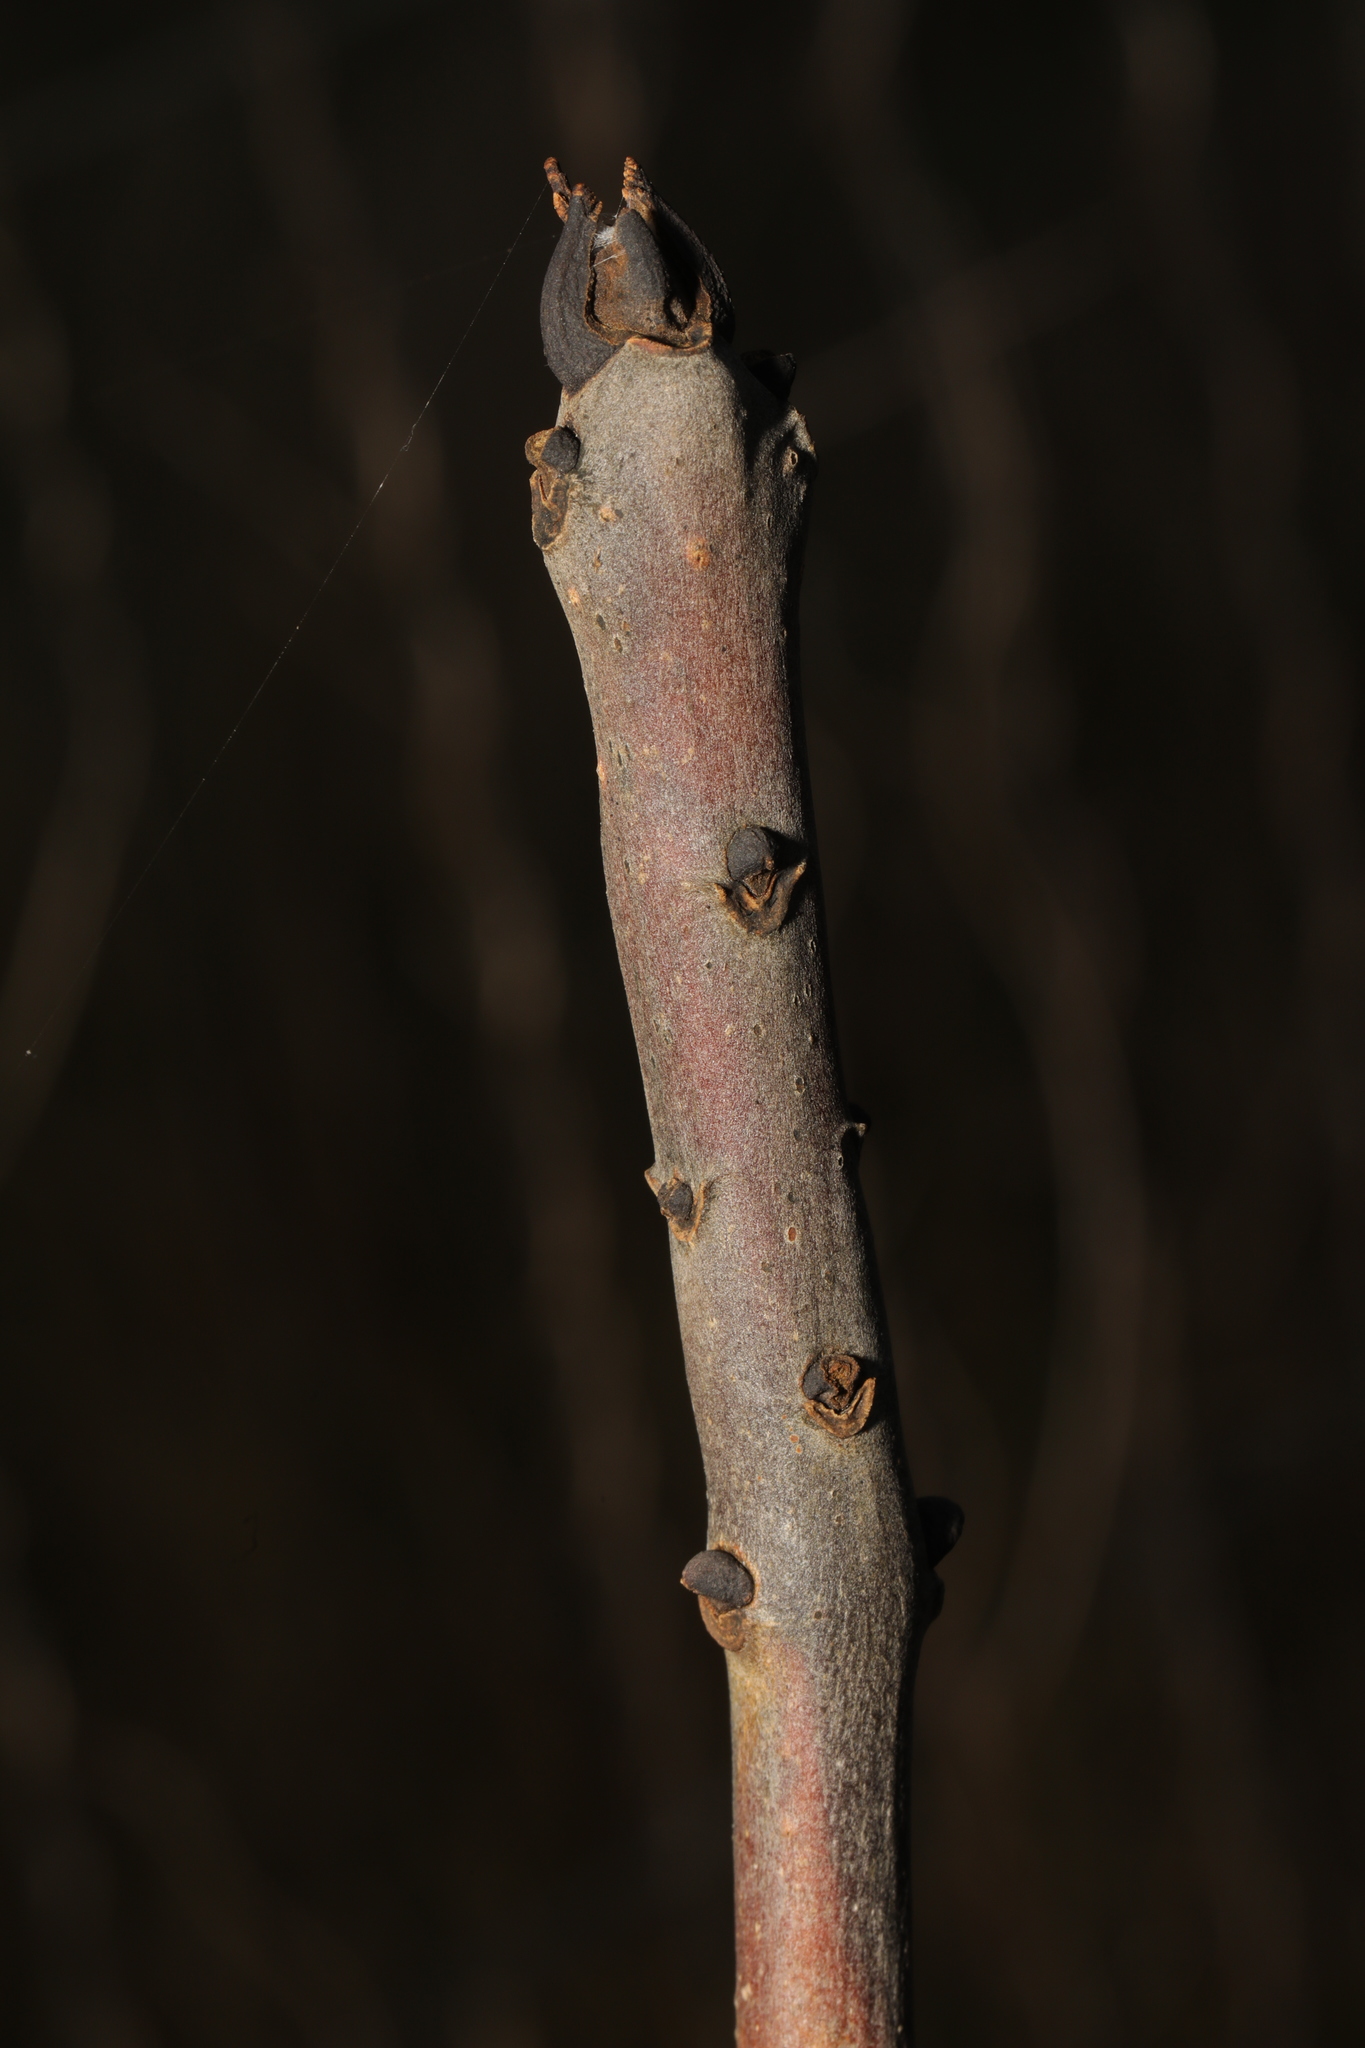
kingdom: Plantae
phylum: Tracheophyta
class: Magnoliopsida
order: Lamiales
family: Oleaceae
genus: Fraxinus
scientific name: Fraxinus excelsior
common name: European ash
